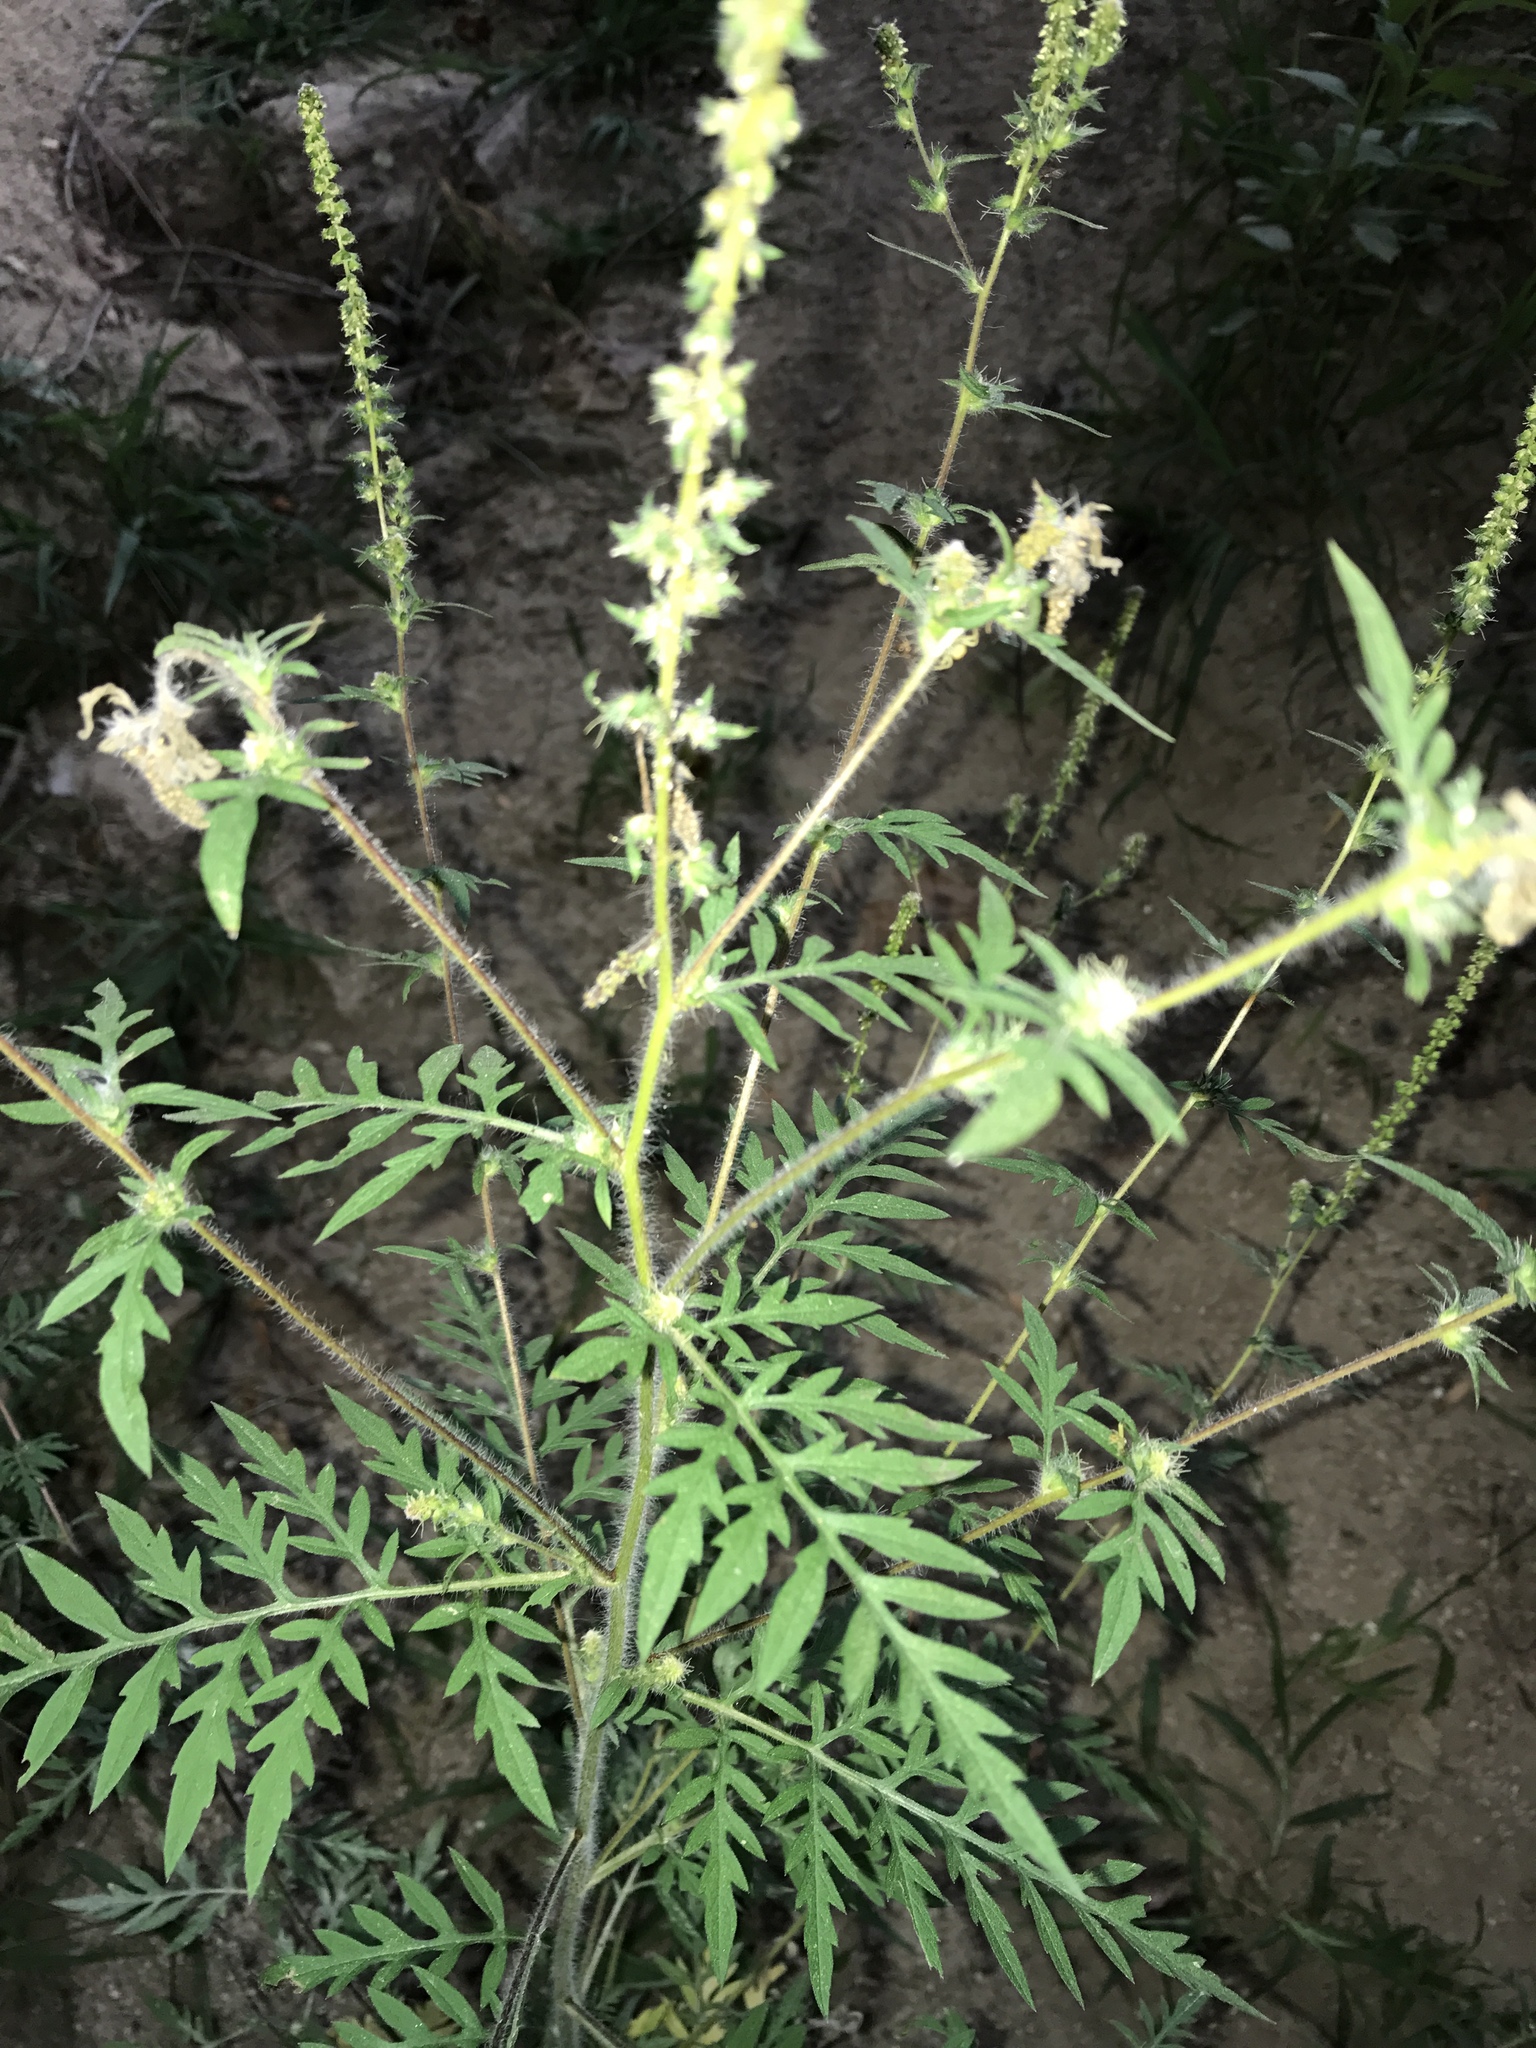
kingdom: Plantae
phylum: Tracheophyta
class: Magnoliopsida
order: Asterales
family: Asteraceae
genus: Ambrosia
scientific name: Ambrosia artemisiifolia
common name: Annual ragweed
